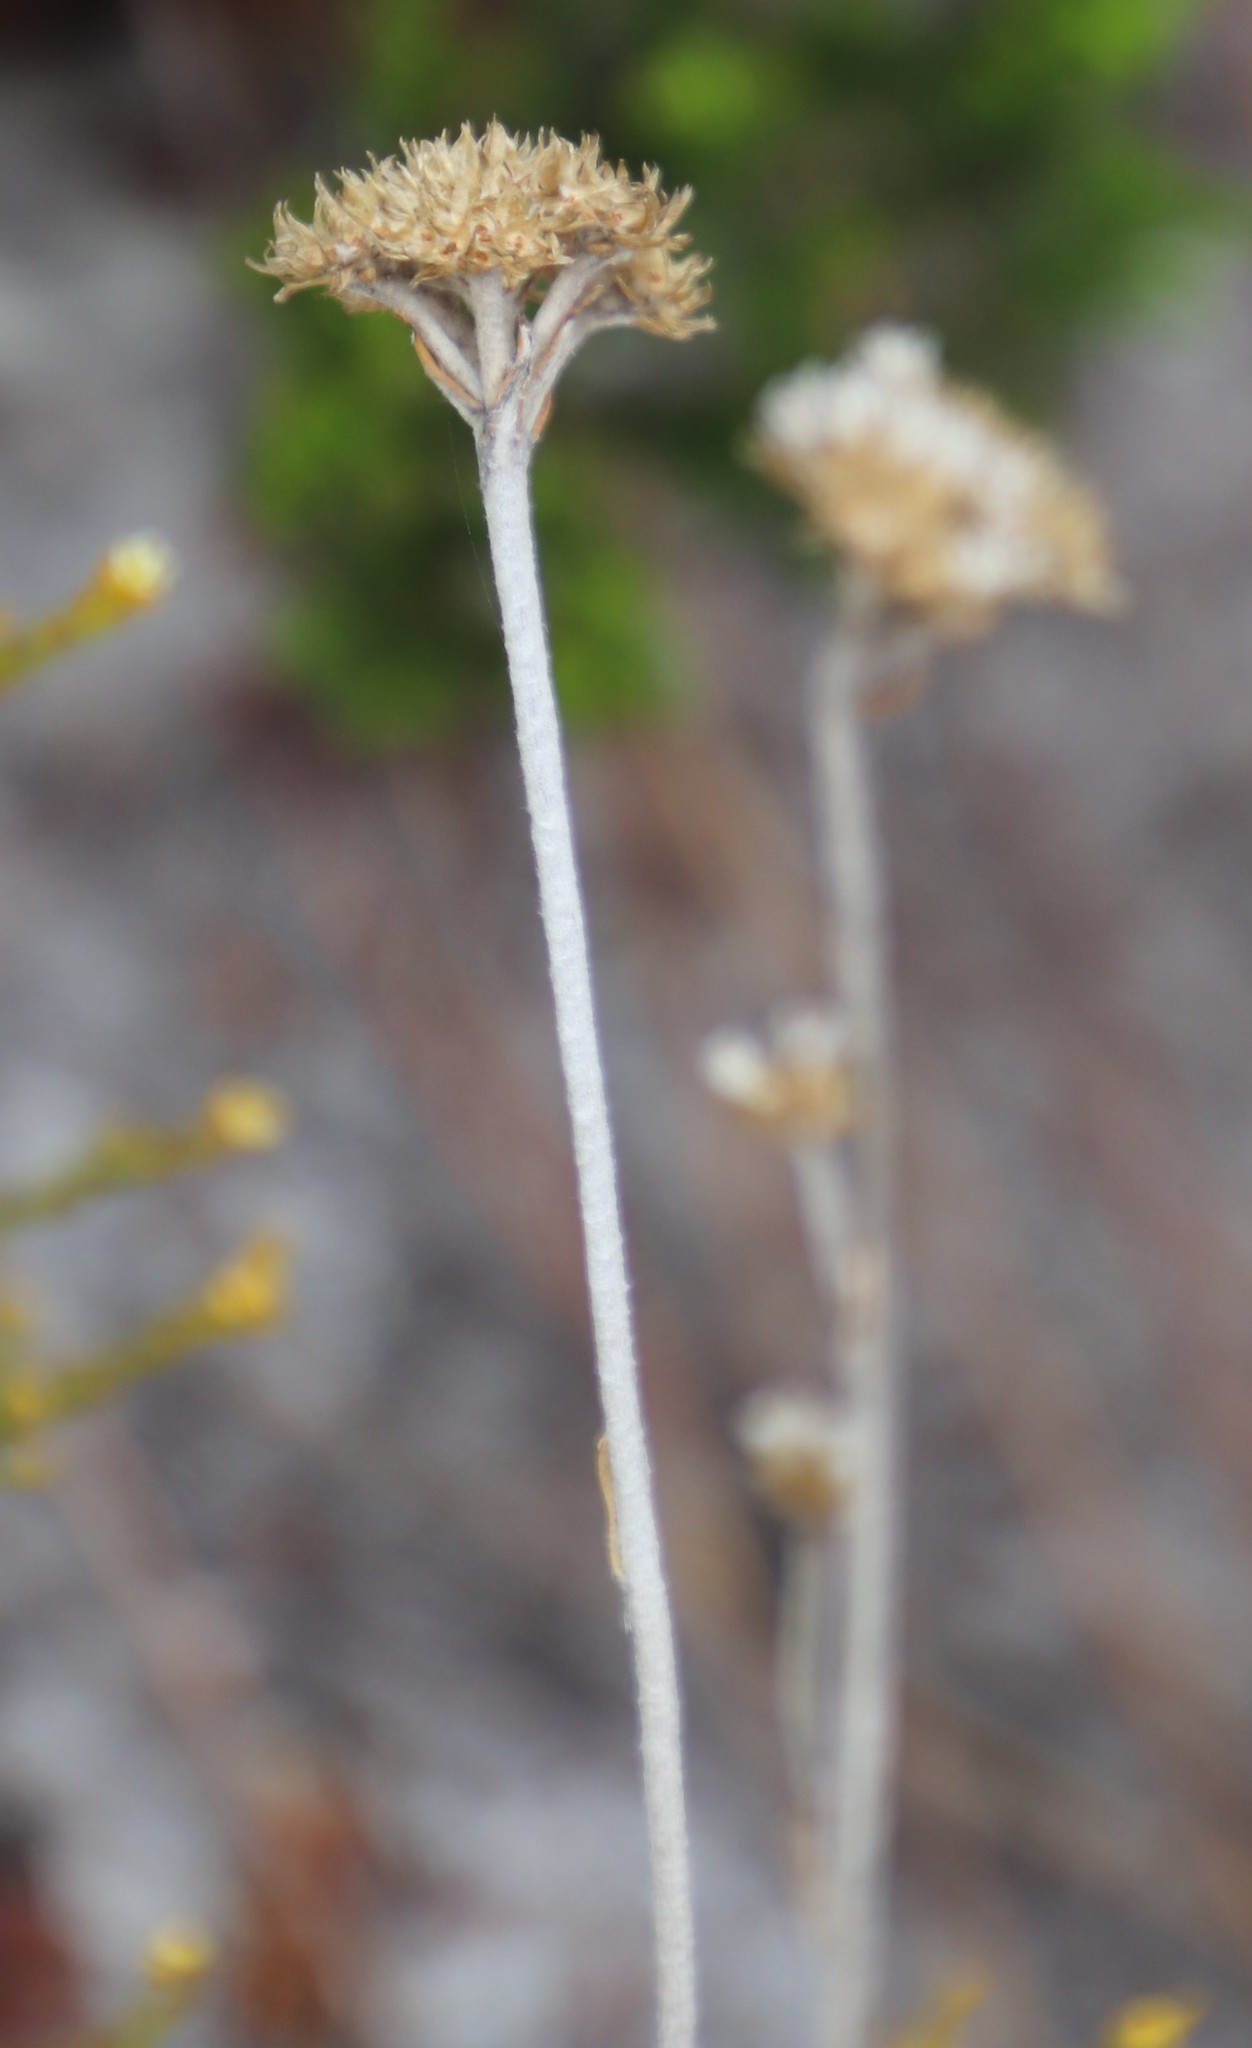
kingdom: Plantae
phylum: Tracheophyta
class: Magnoliopsida
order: Asterales
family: Asteraceae
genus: Anaxeton
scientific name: Anaxeton arborescens
